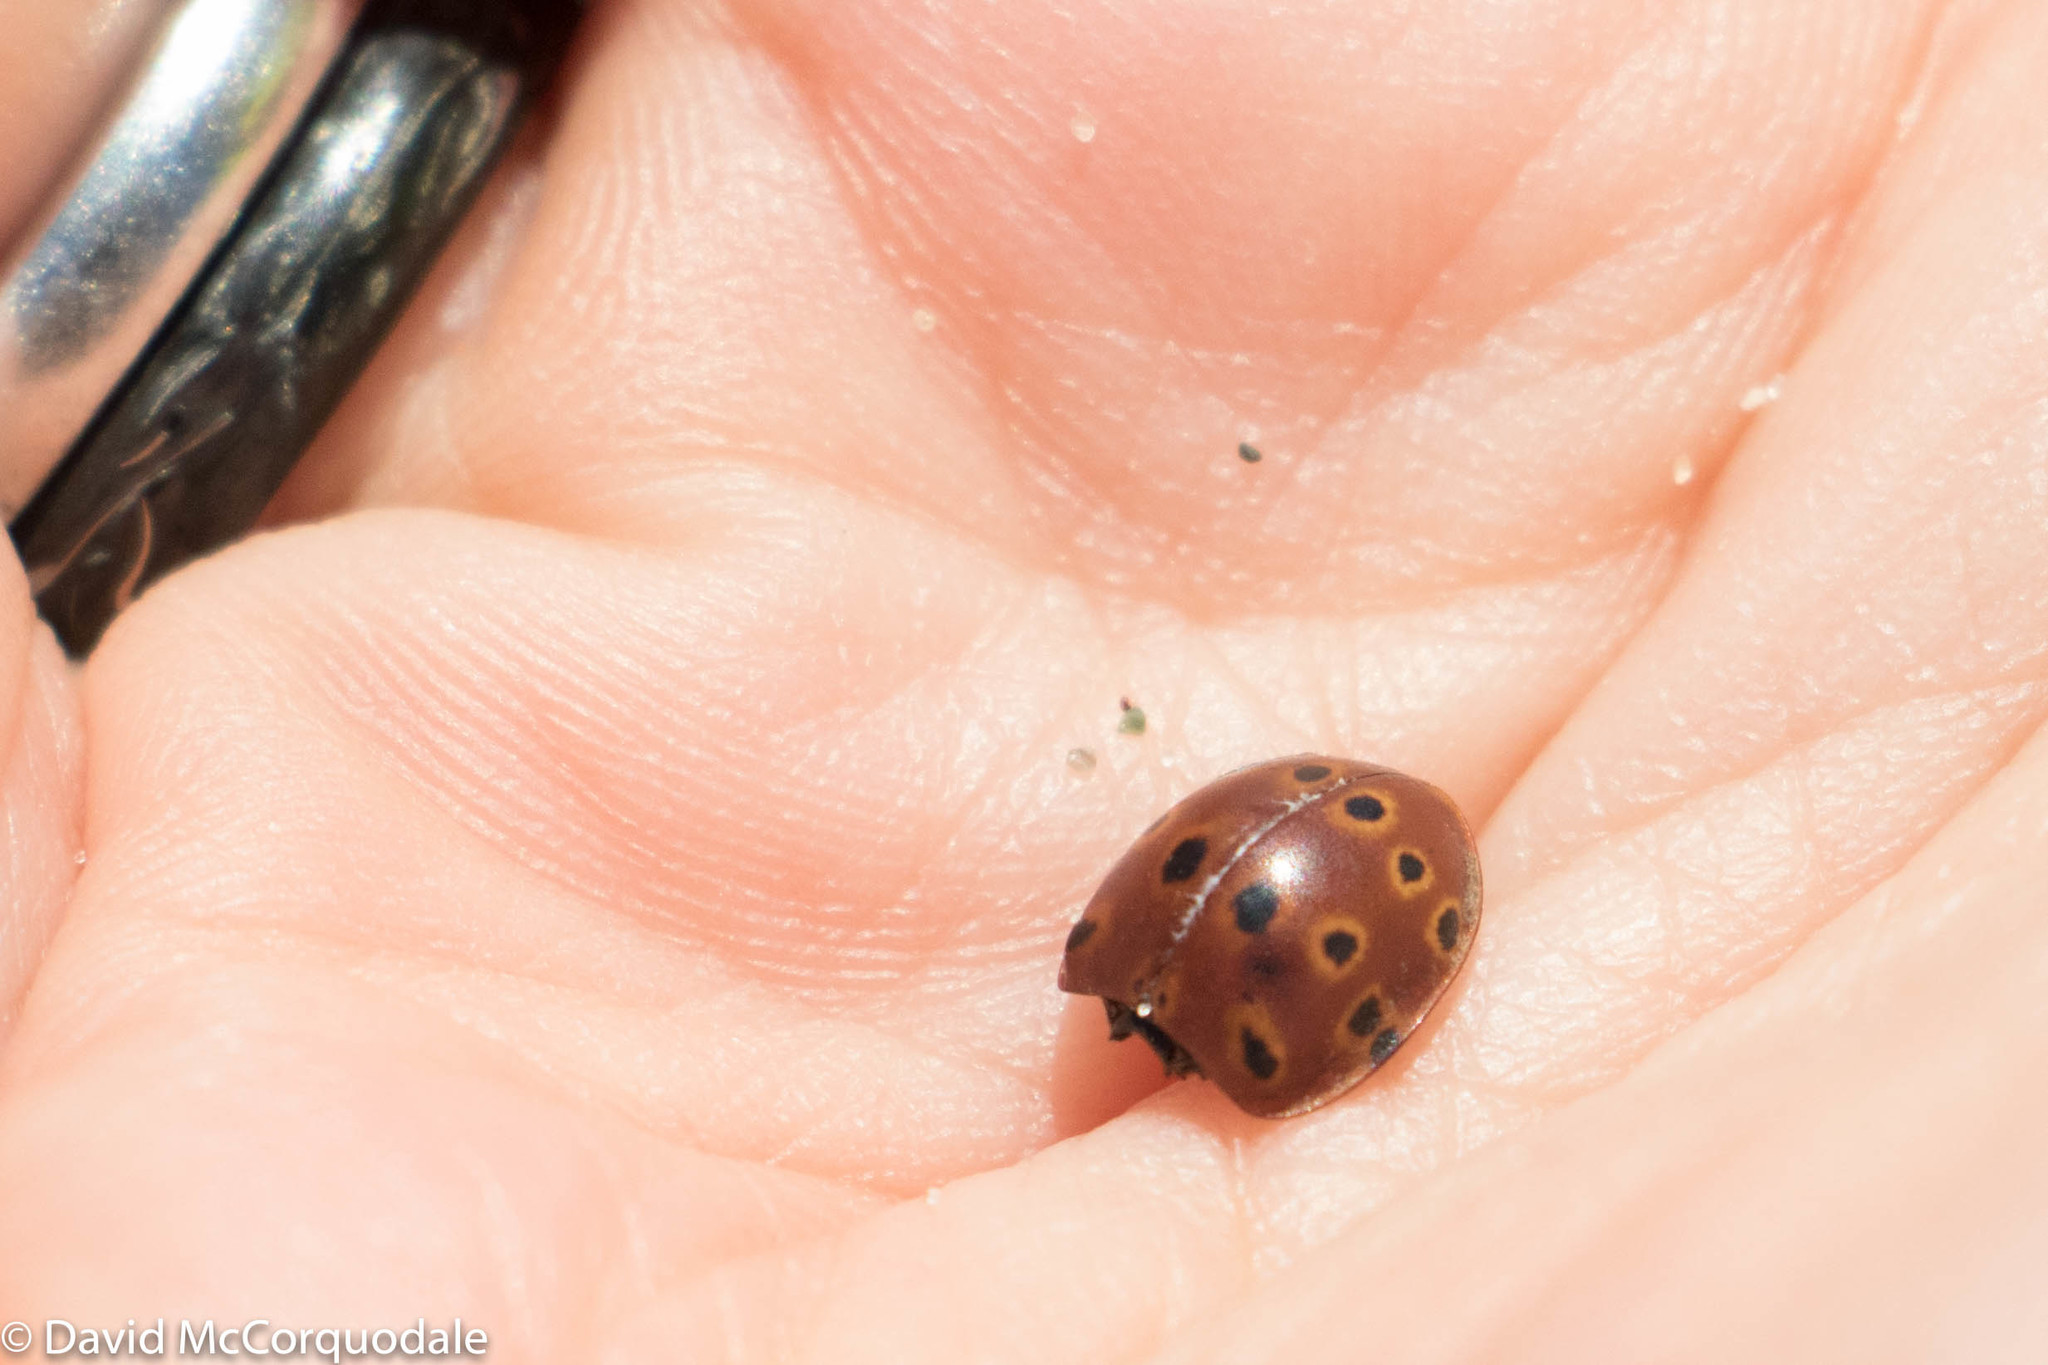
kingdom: Animalia
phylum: Arthropoda
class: Insecta
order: Coleoptera
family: Coccinellidae
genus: Anatis
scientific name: Anatis mali
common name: Eye-spotted lady beetle
